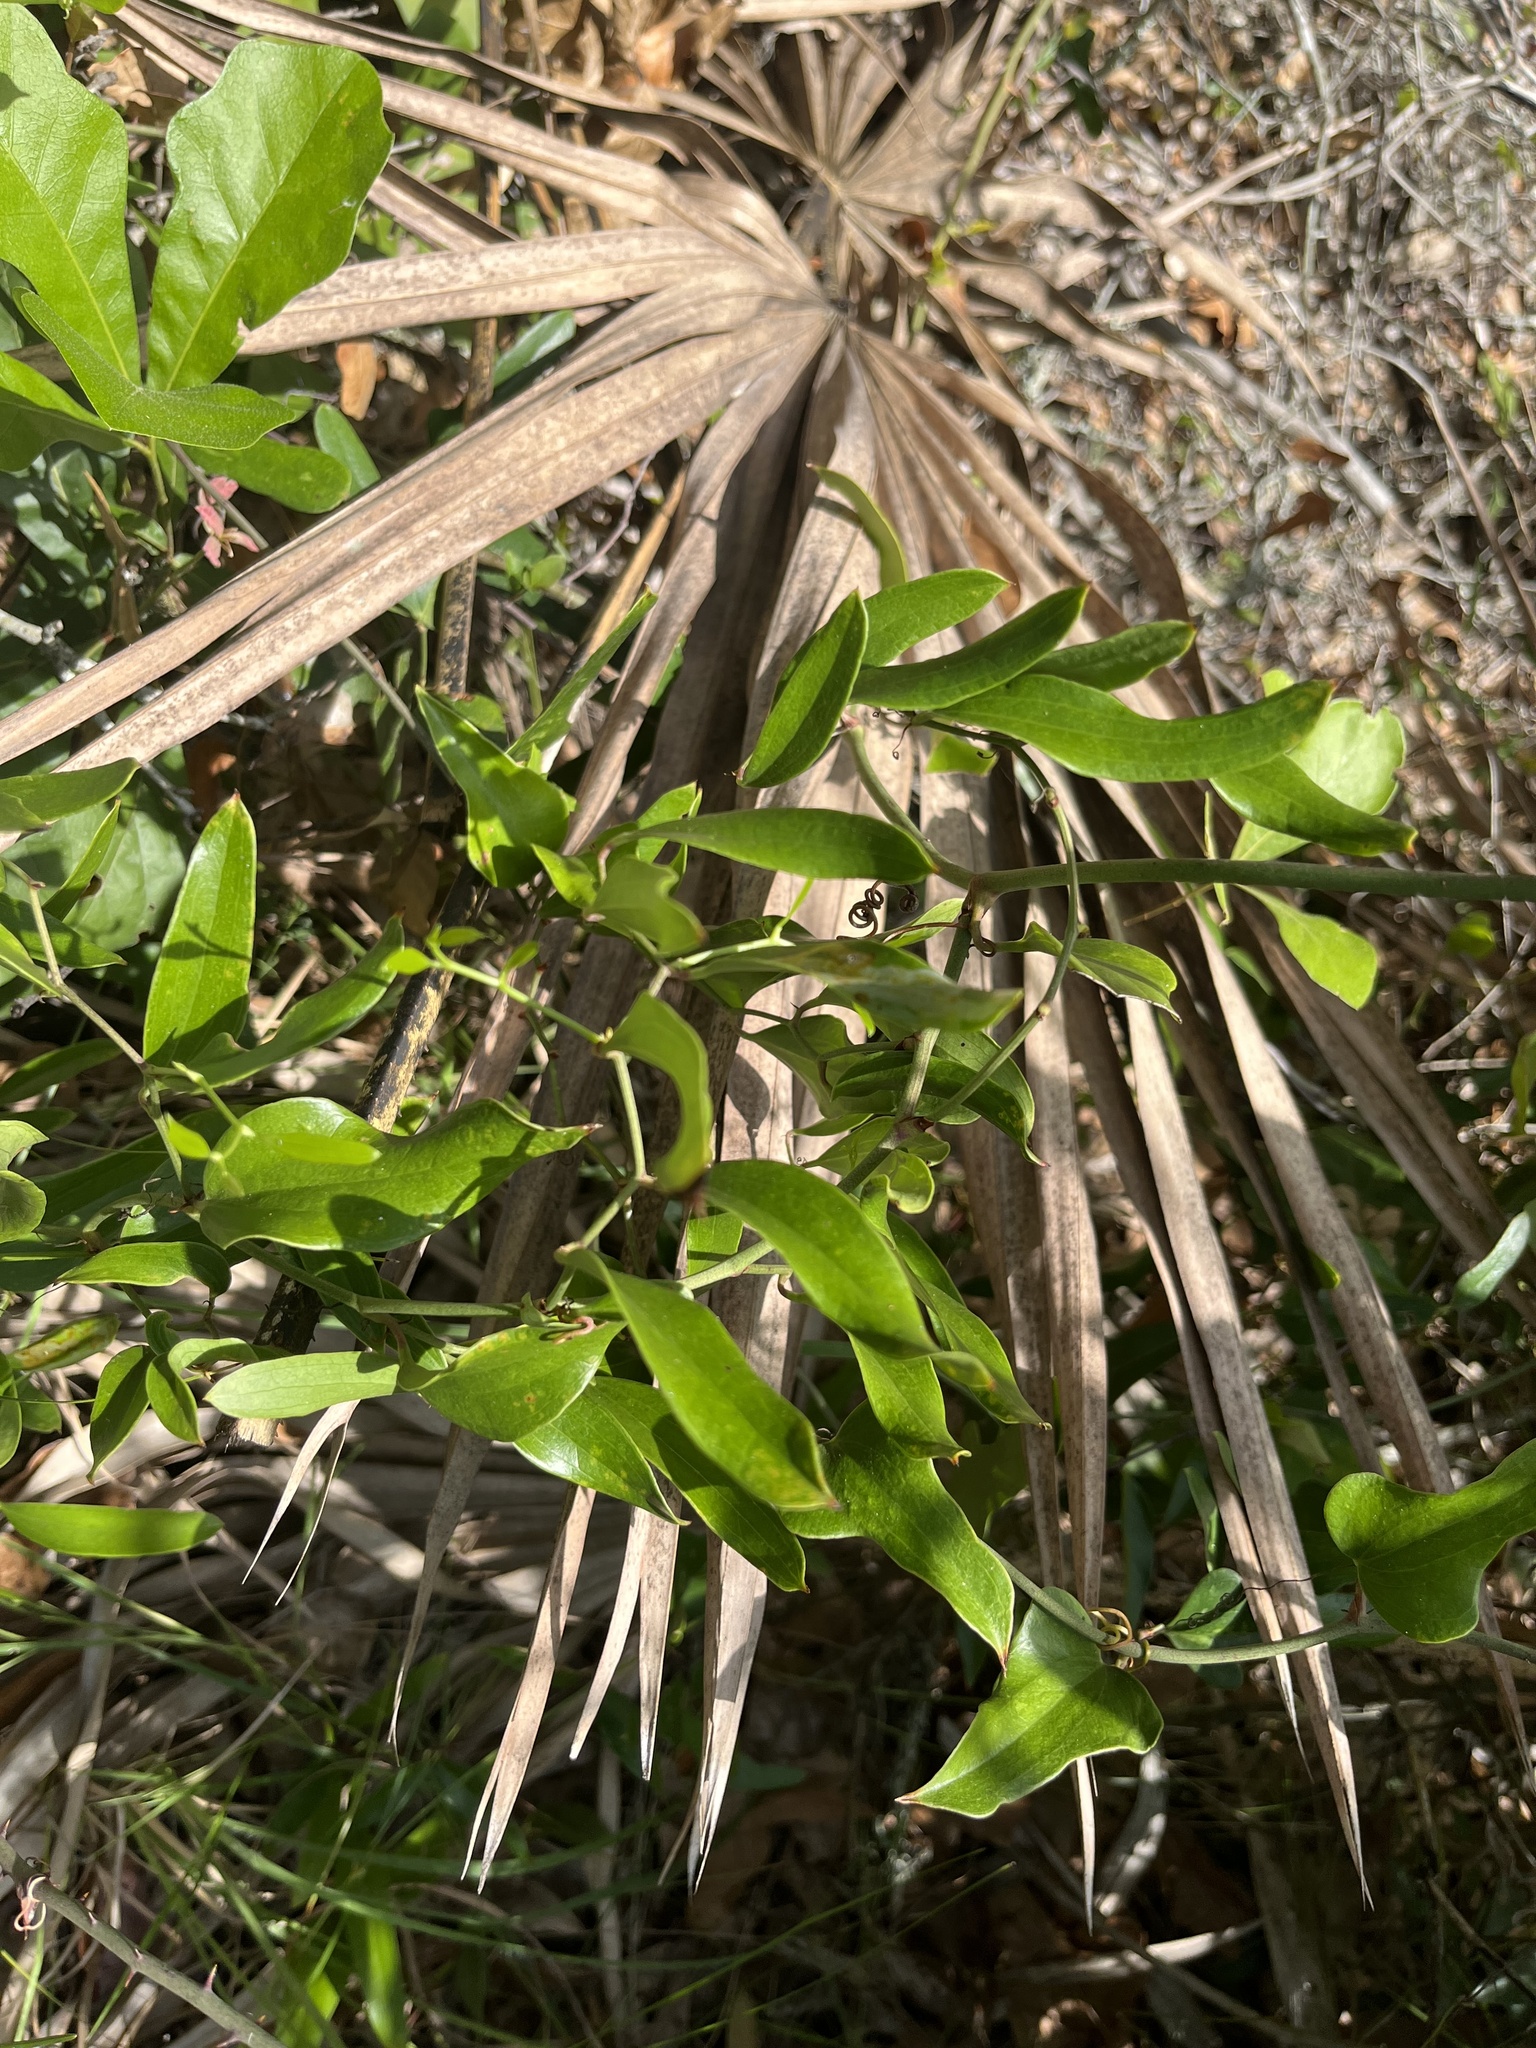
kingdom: Plantae
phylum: Tracheophyta
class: Liliopsida
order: Liliales
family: Smilacaceae
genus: Smilax
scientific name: Smilax auriculata
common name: Wild bamboo
